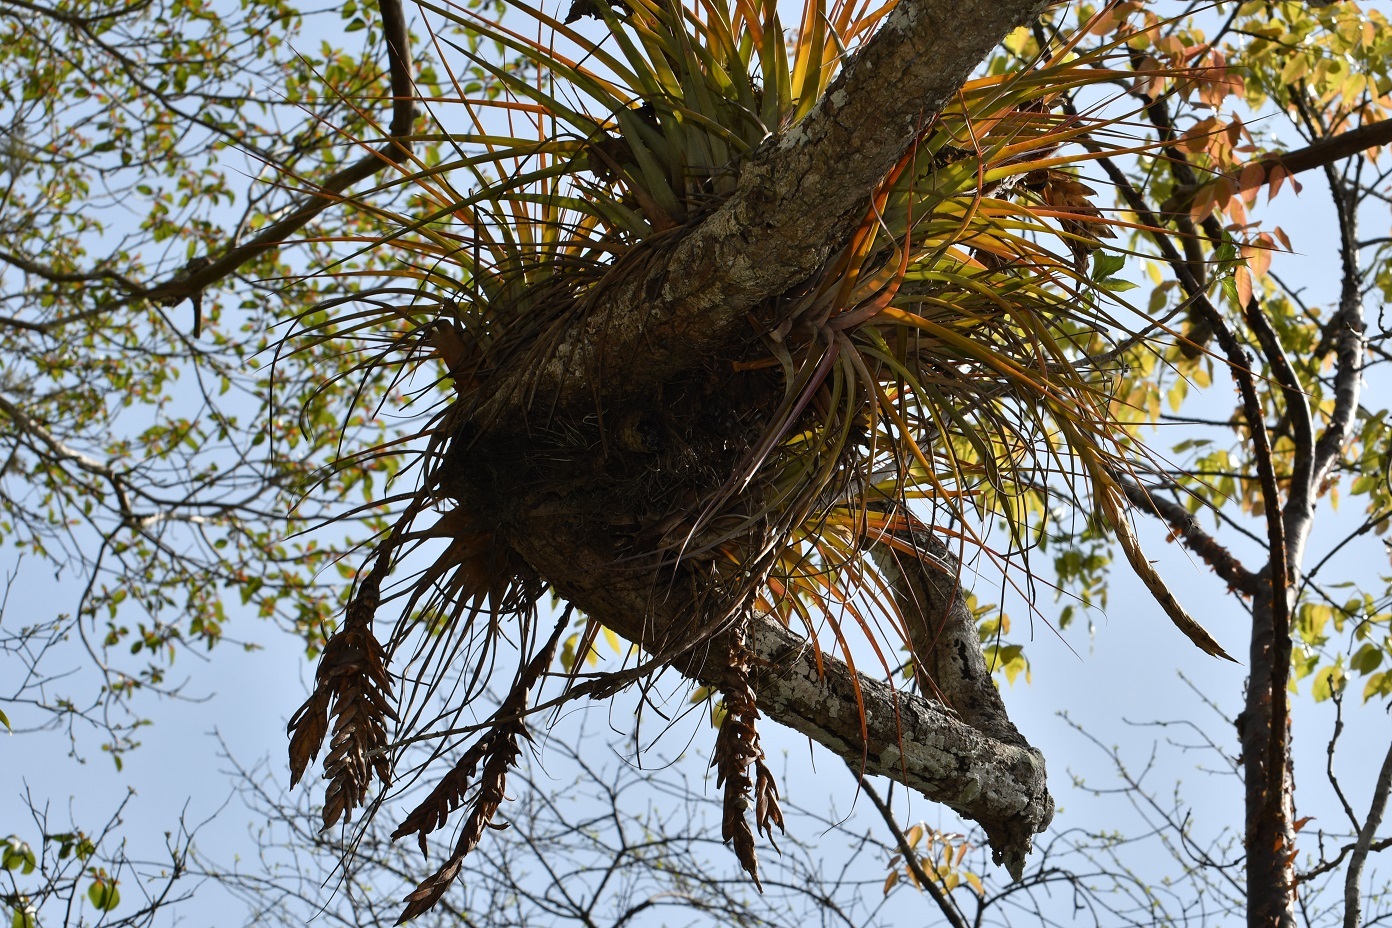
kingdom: Plantae
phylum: Tracheophyta
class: Liliopsida
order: Poales
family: Bromeliaceae
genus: Tillandsia
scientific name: Tillandsia zoquensis
